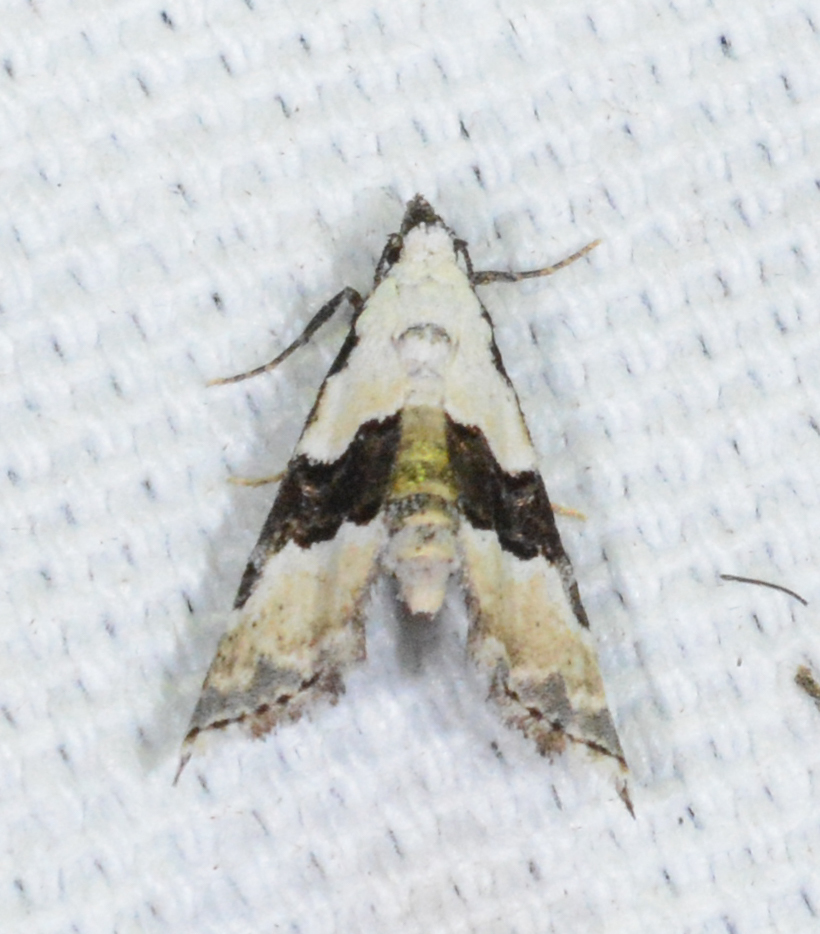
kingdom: Animalia
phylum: Arthropoda
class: Insecta
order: Lepidoptera
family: Noctuidae
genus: Nigetia
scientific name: Nigetia formosalis
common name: Thin-winged owlet
